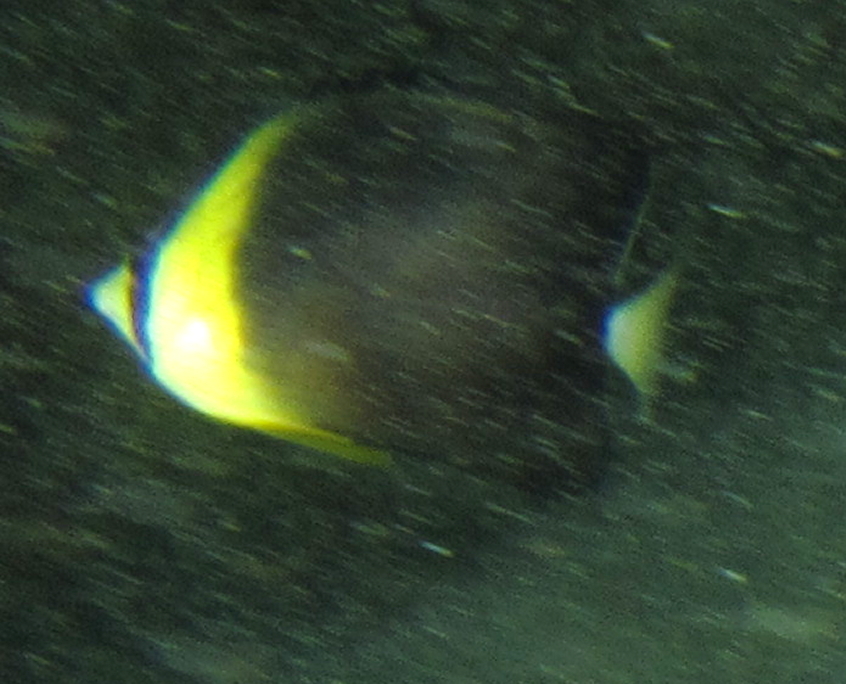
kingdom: Animalia
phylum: Chordata
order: Perciformes
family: Chaetodontidae
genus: Chaetodon
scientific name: Chaetodon blackburnii
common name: Blackburn's butterflyfish
